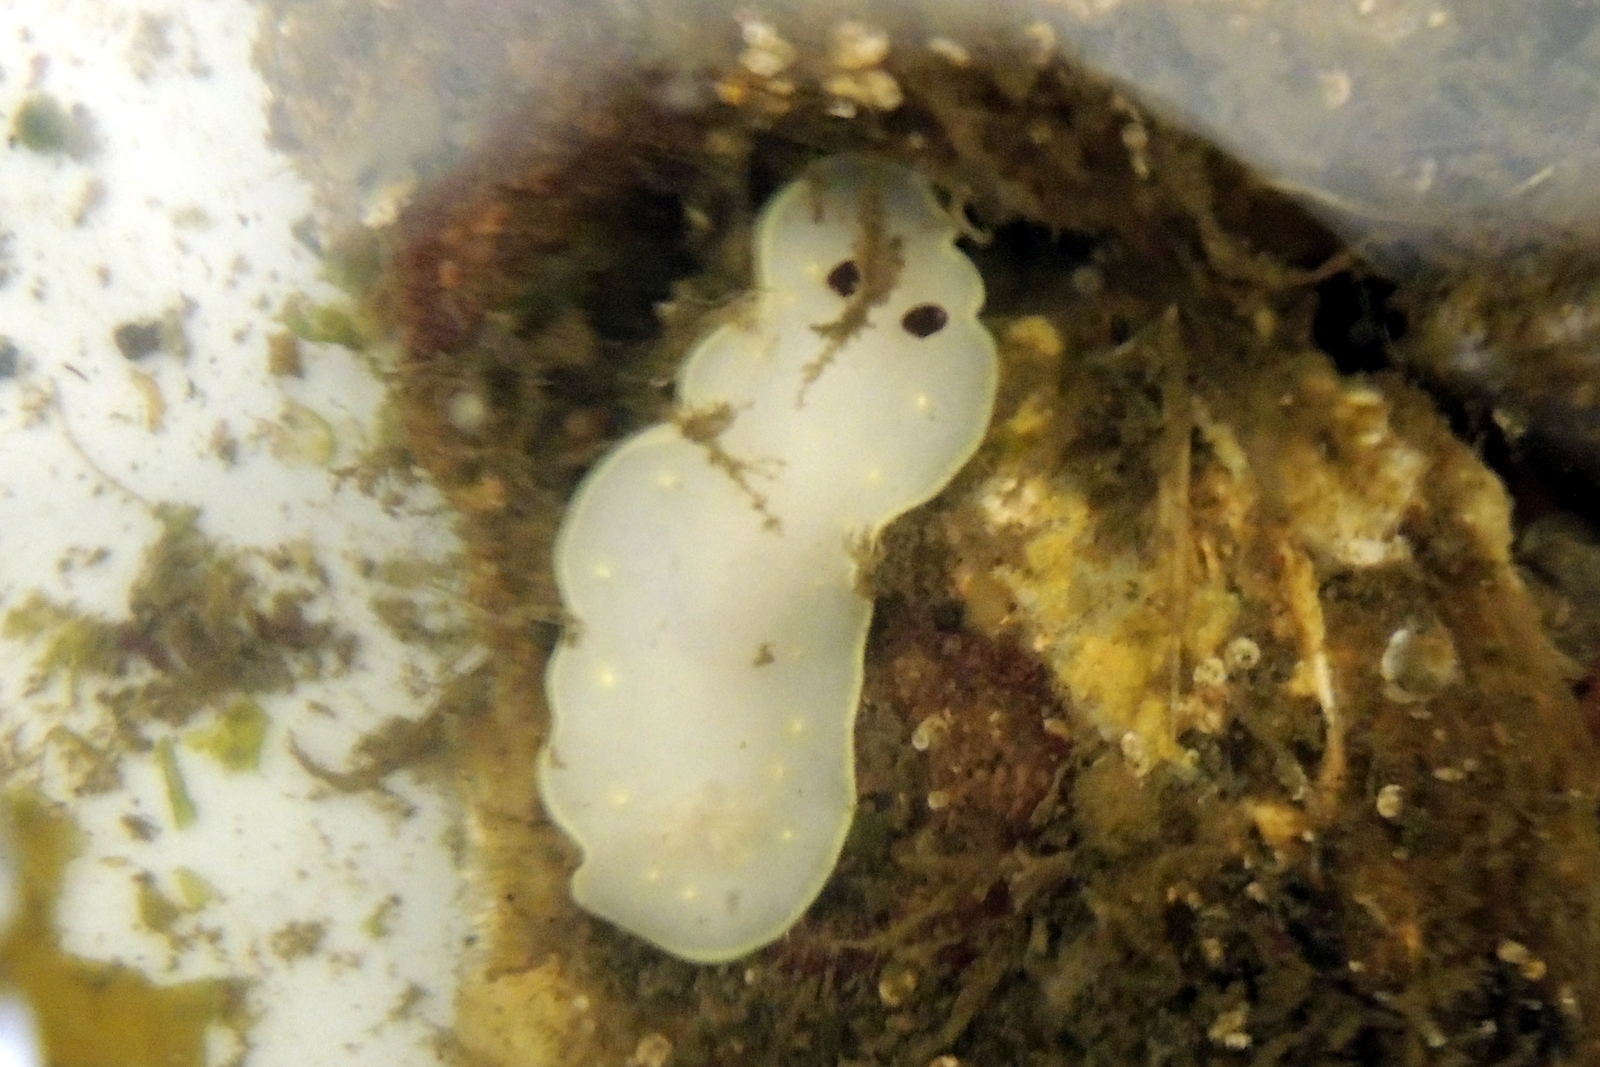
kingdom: Animalia
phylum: Mollusca
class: Gastropoda
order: Nudibranchia
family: Cadlinidae
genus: Cadlina
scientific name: Cadlina flavomaculata
